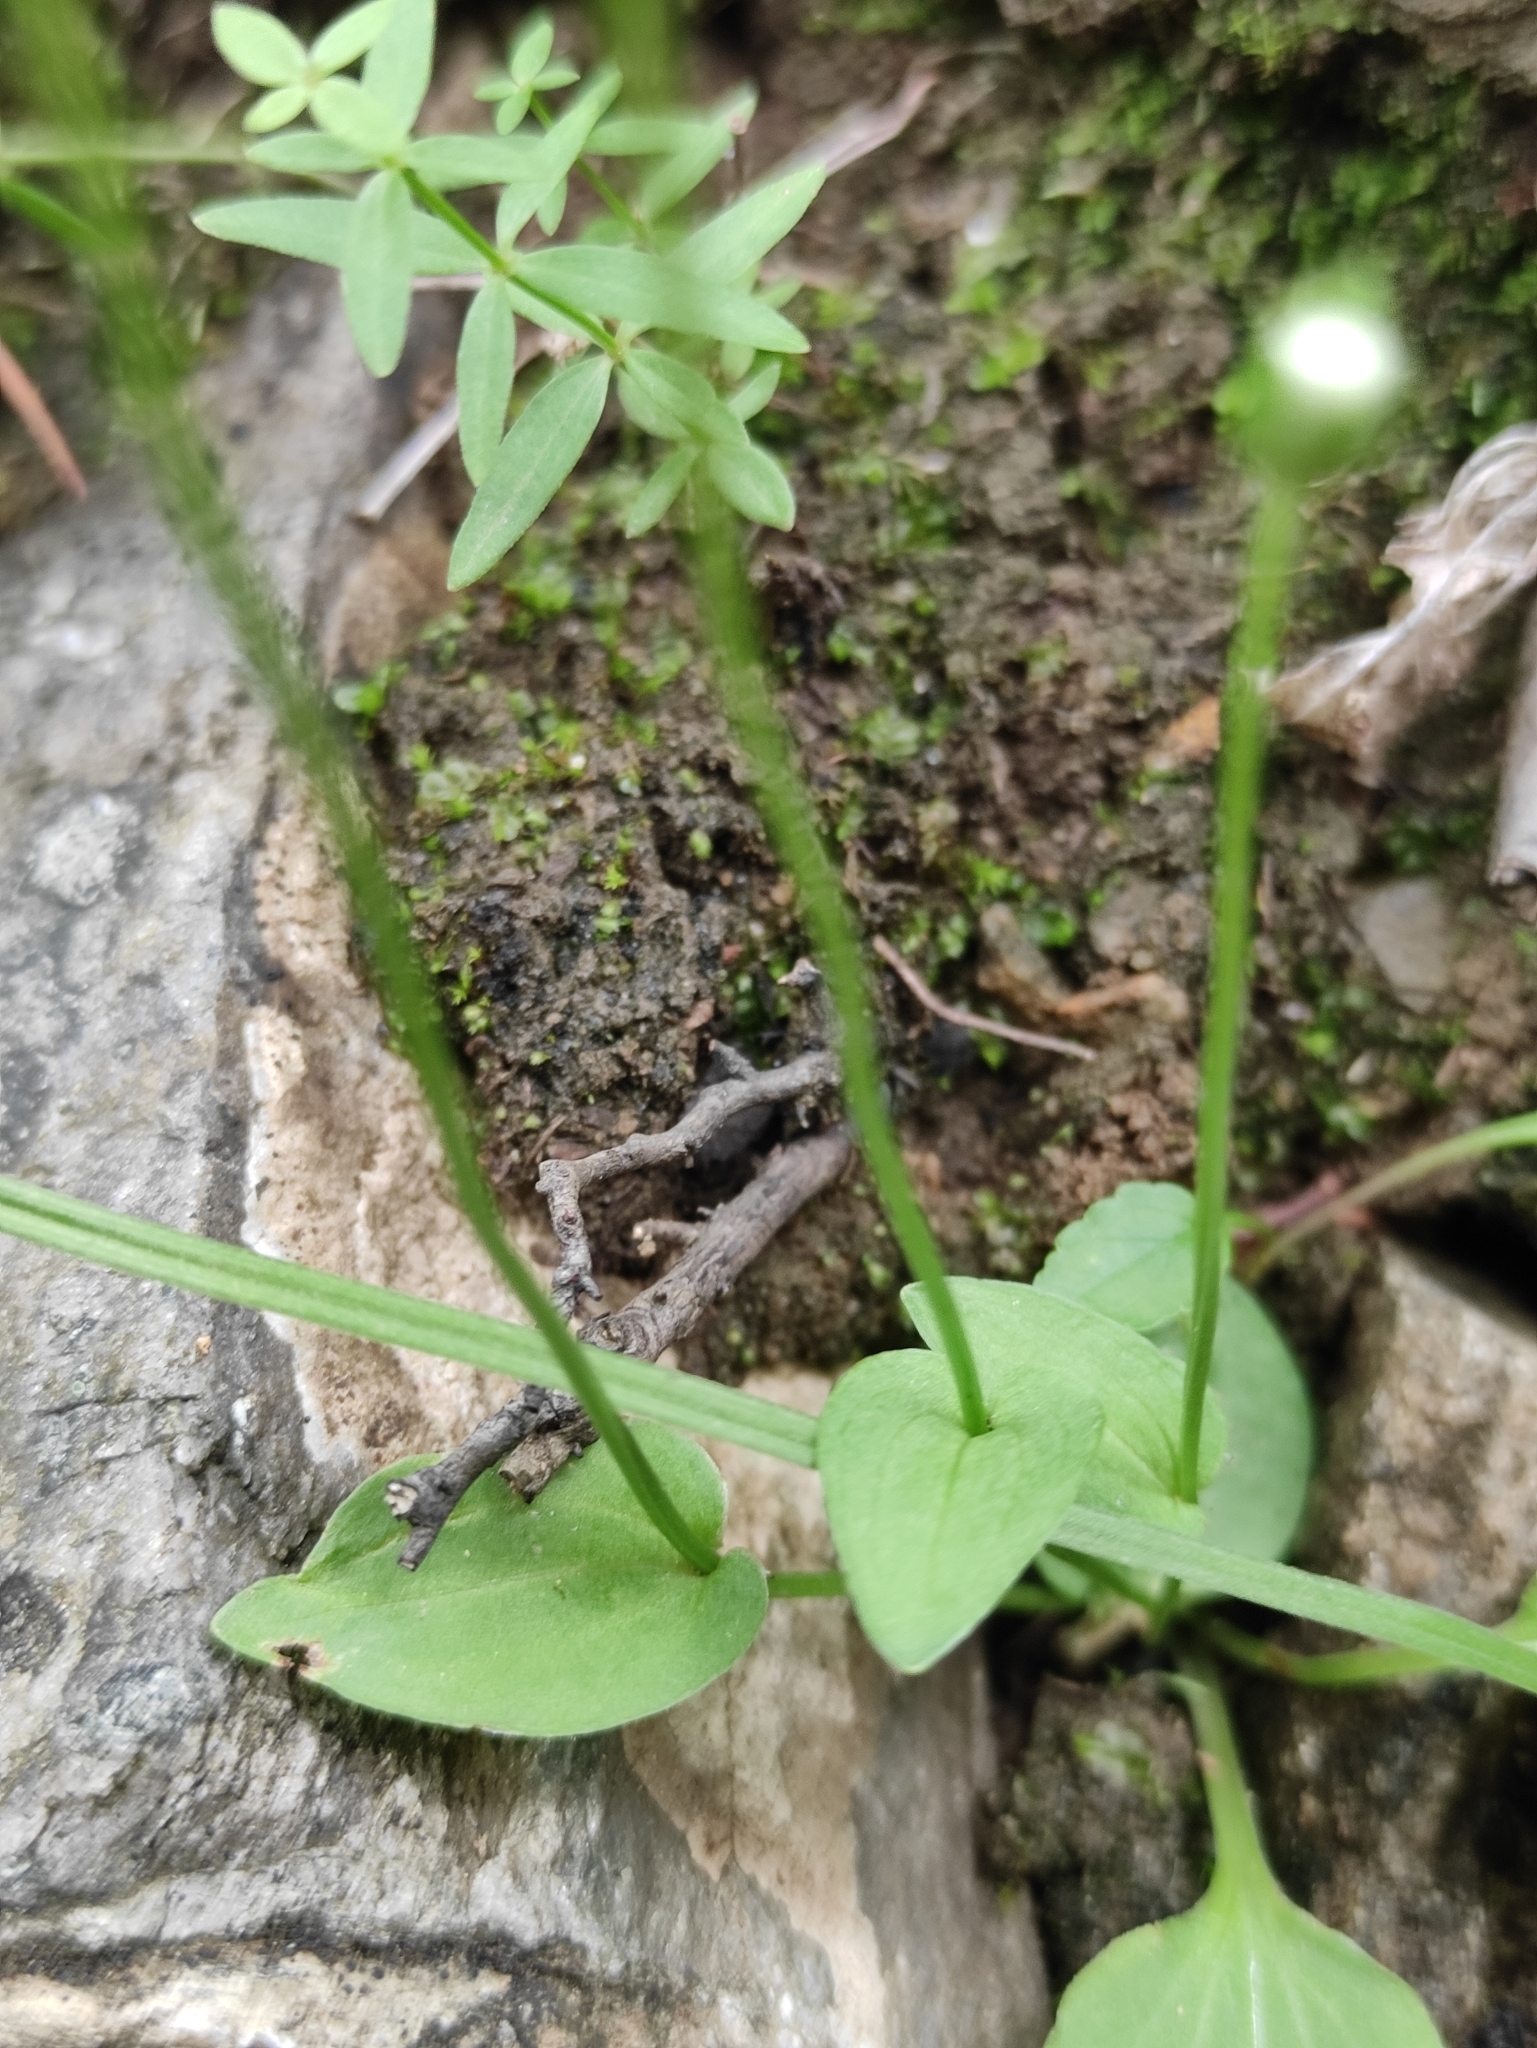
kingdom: Plantae
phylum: Tracheophyta
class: Magnoliopsida
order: Celastrales
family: Parnassiaceae
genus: Parnassia
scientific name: Parnassia laxmannii
